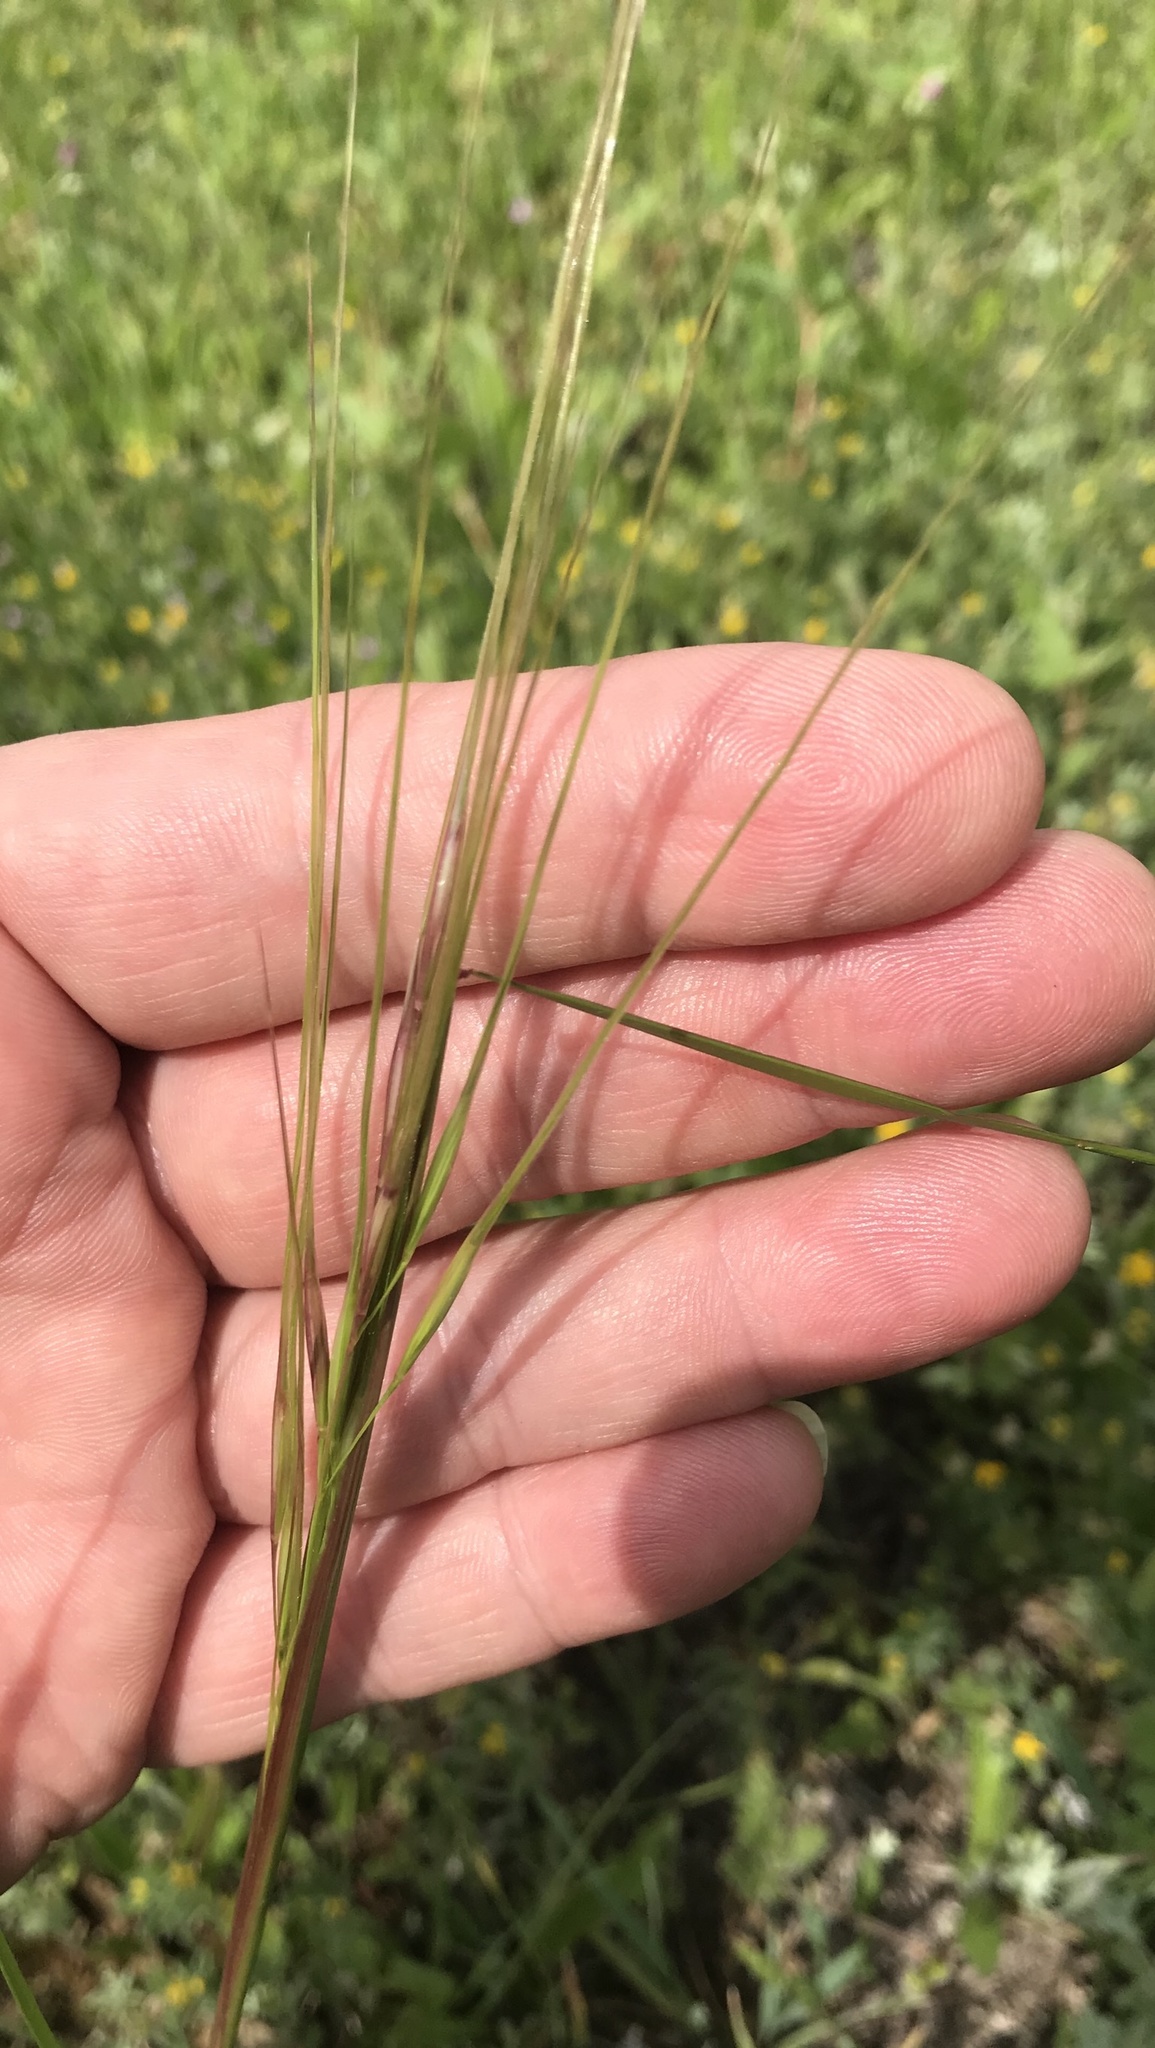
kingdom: Plantae
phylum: Tracheophyta
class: Liliopsida
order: Poales
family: Poaceae
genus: Nassella
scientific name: Nassella leucotricha
